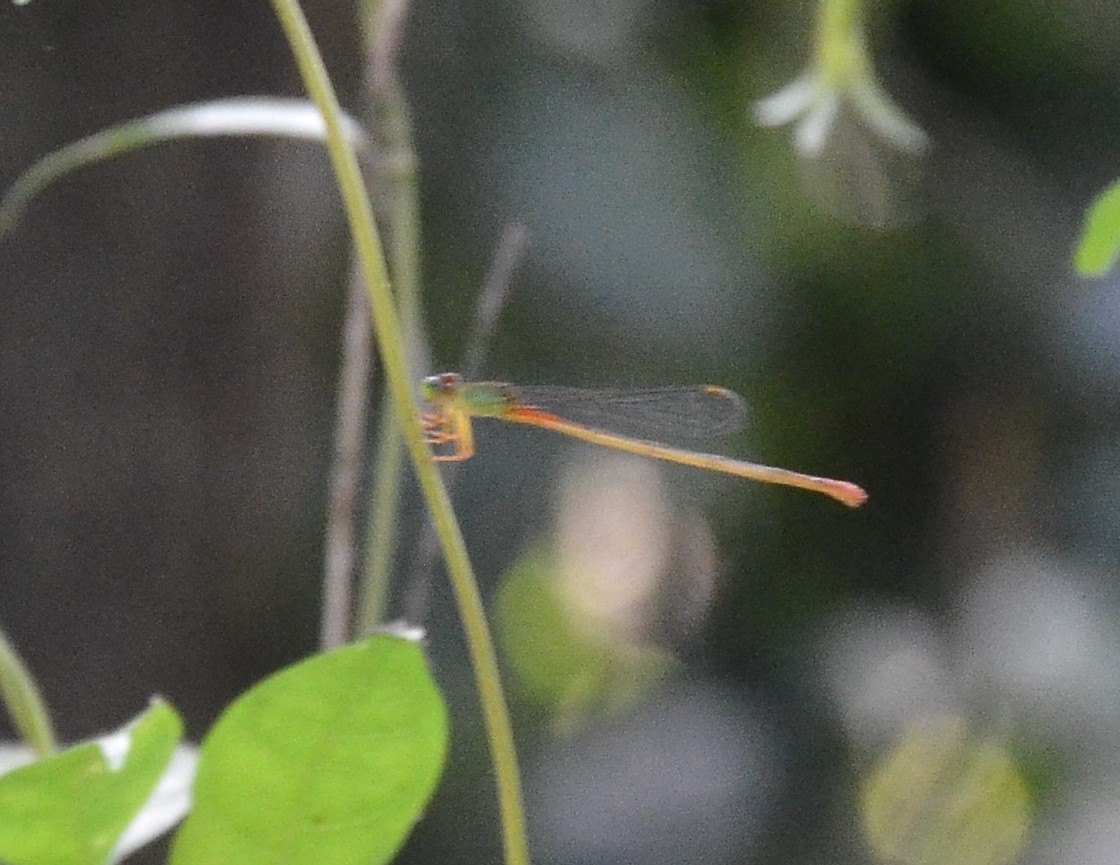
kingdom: Animalia
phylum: Arthropoda
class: Insecta
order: Odonata
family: Coenagrionidae
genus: Ceriagrion
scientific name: Ceriagrion cerinorubellum
